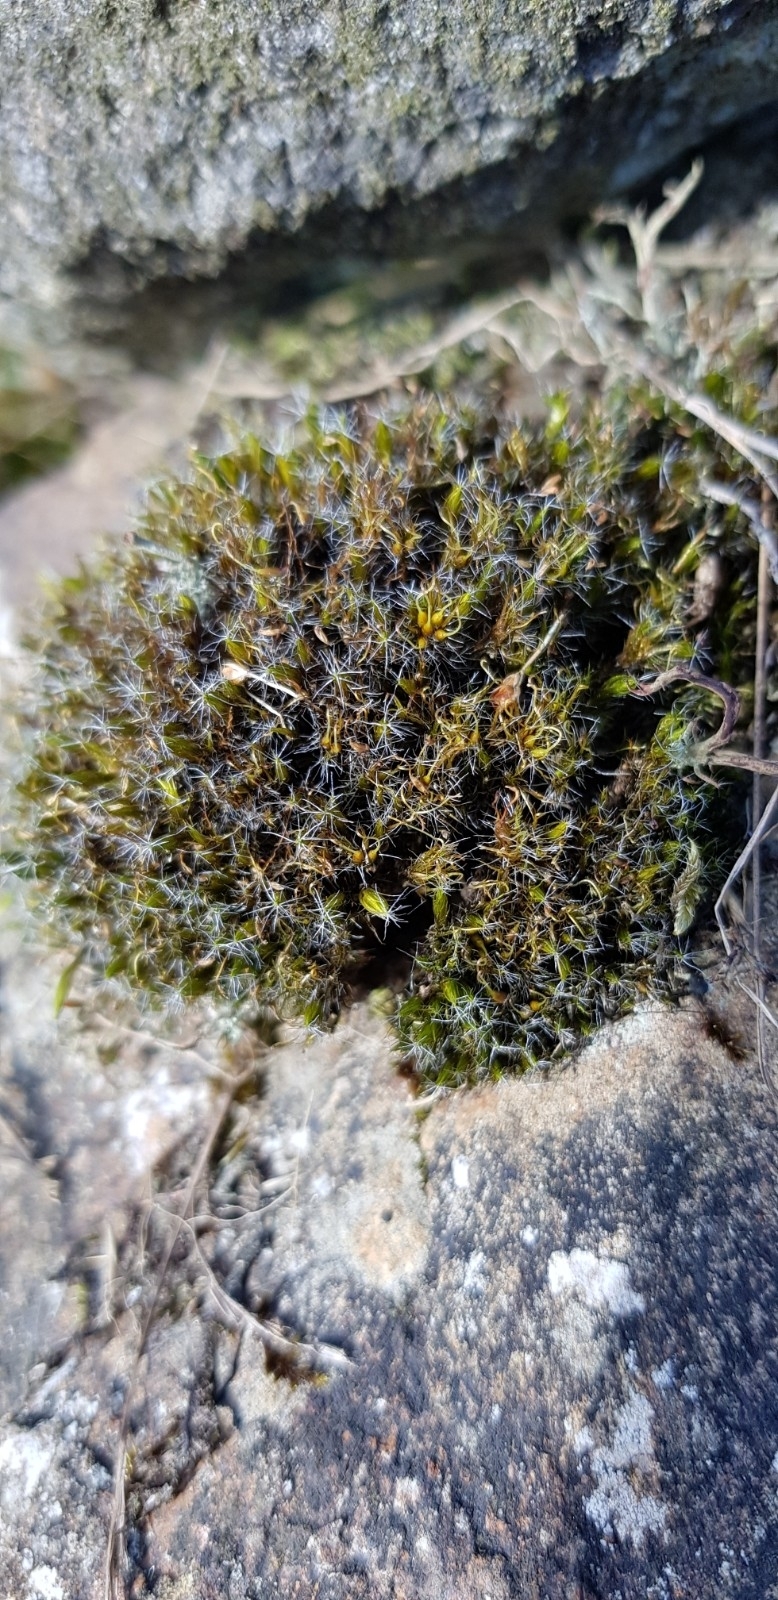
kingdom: Plantae
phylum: Bryophyta
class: Bryopsida
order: Dicranales
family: Leucobryaceae
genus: Campylopus
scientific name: Campylopus introflexus
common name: Heath star moss
